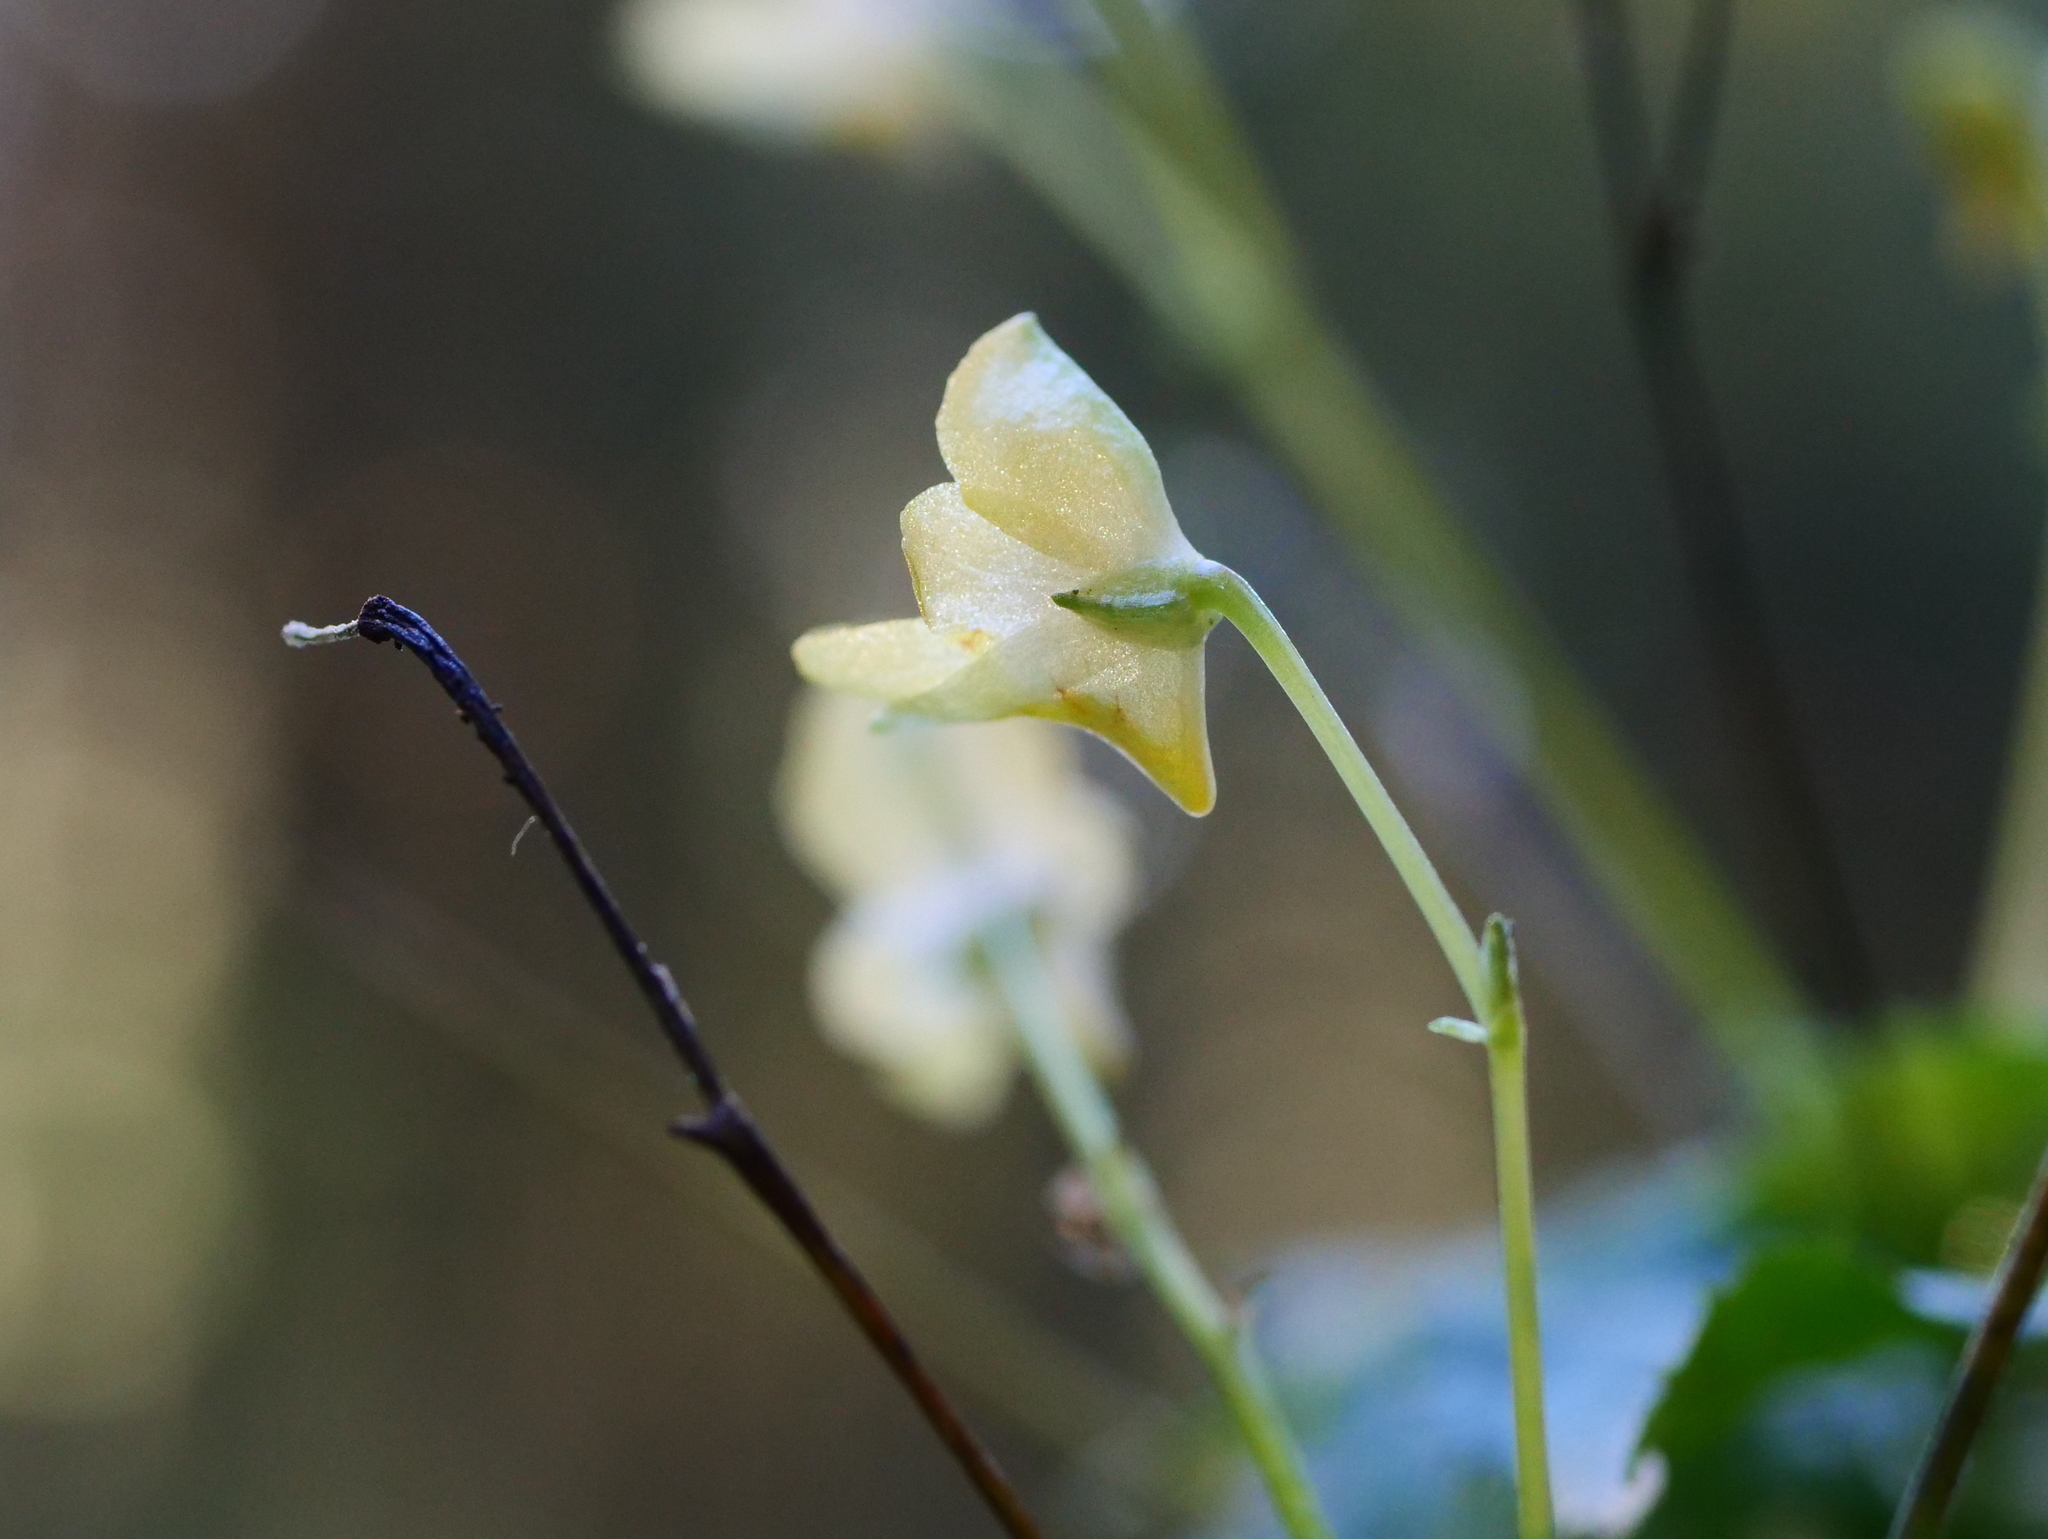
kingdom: Plantae
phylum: Tracheophyta
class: Magnoliopsida
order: Ericales
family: Balsaminaceae
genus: Impatiens
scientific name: Impatiens parviflora
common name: Small balsam
